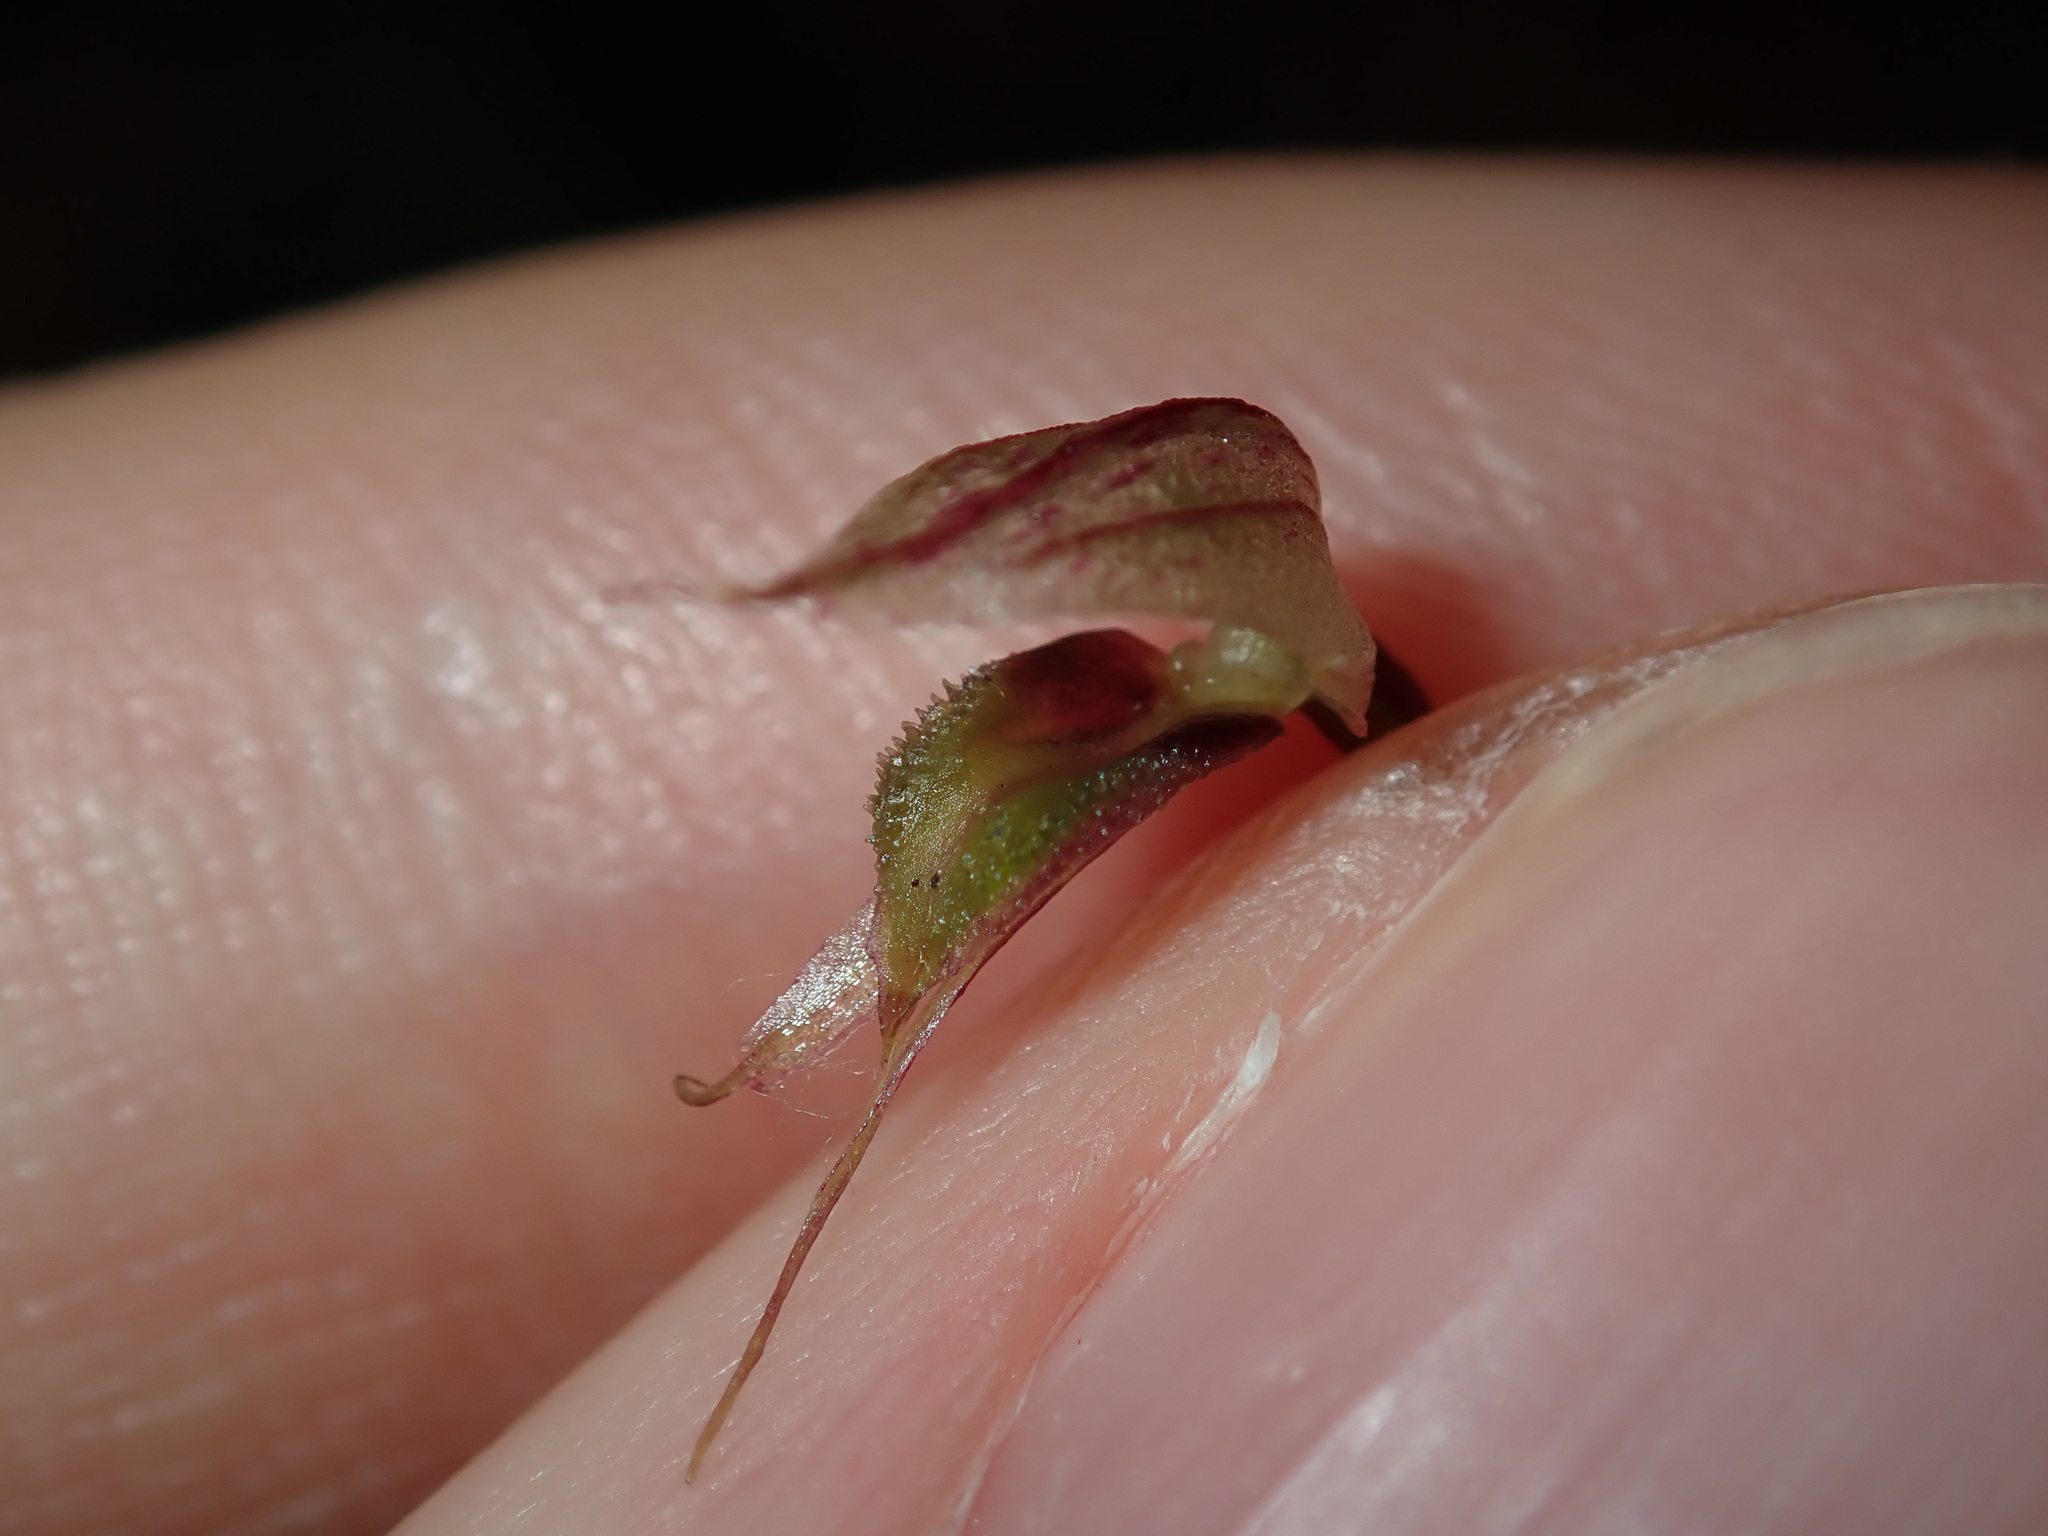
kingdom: Plantae
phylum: Tracheophyta
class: Liliopsida
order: Asparagales
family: Orchidaceae
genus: Acianthus
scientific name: Acianthus fornicatus
